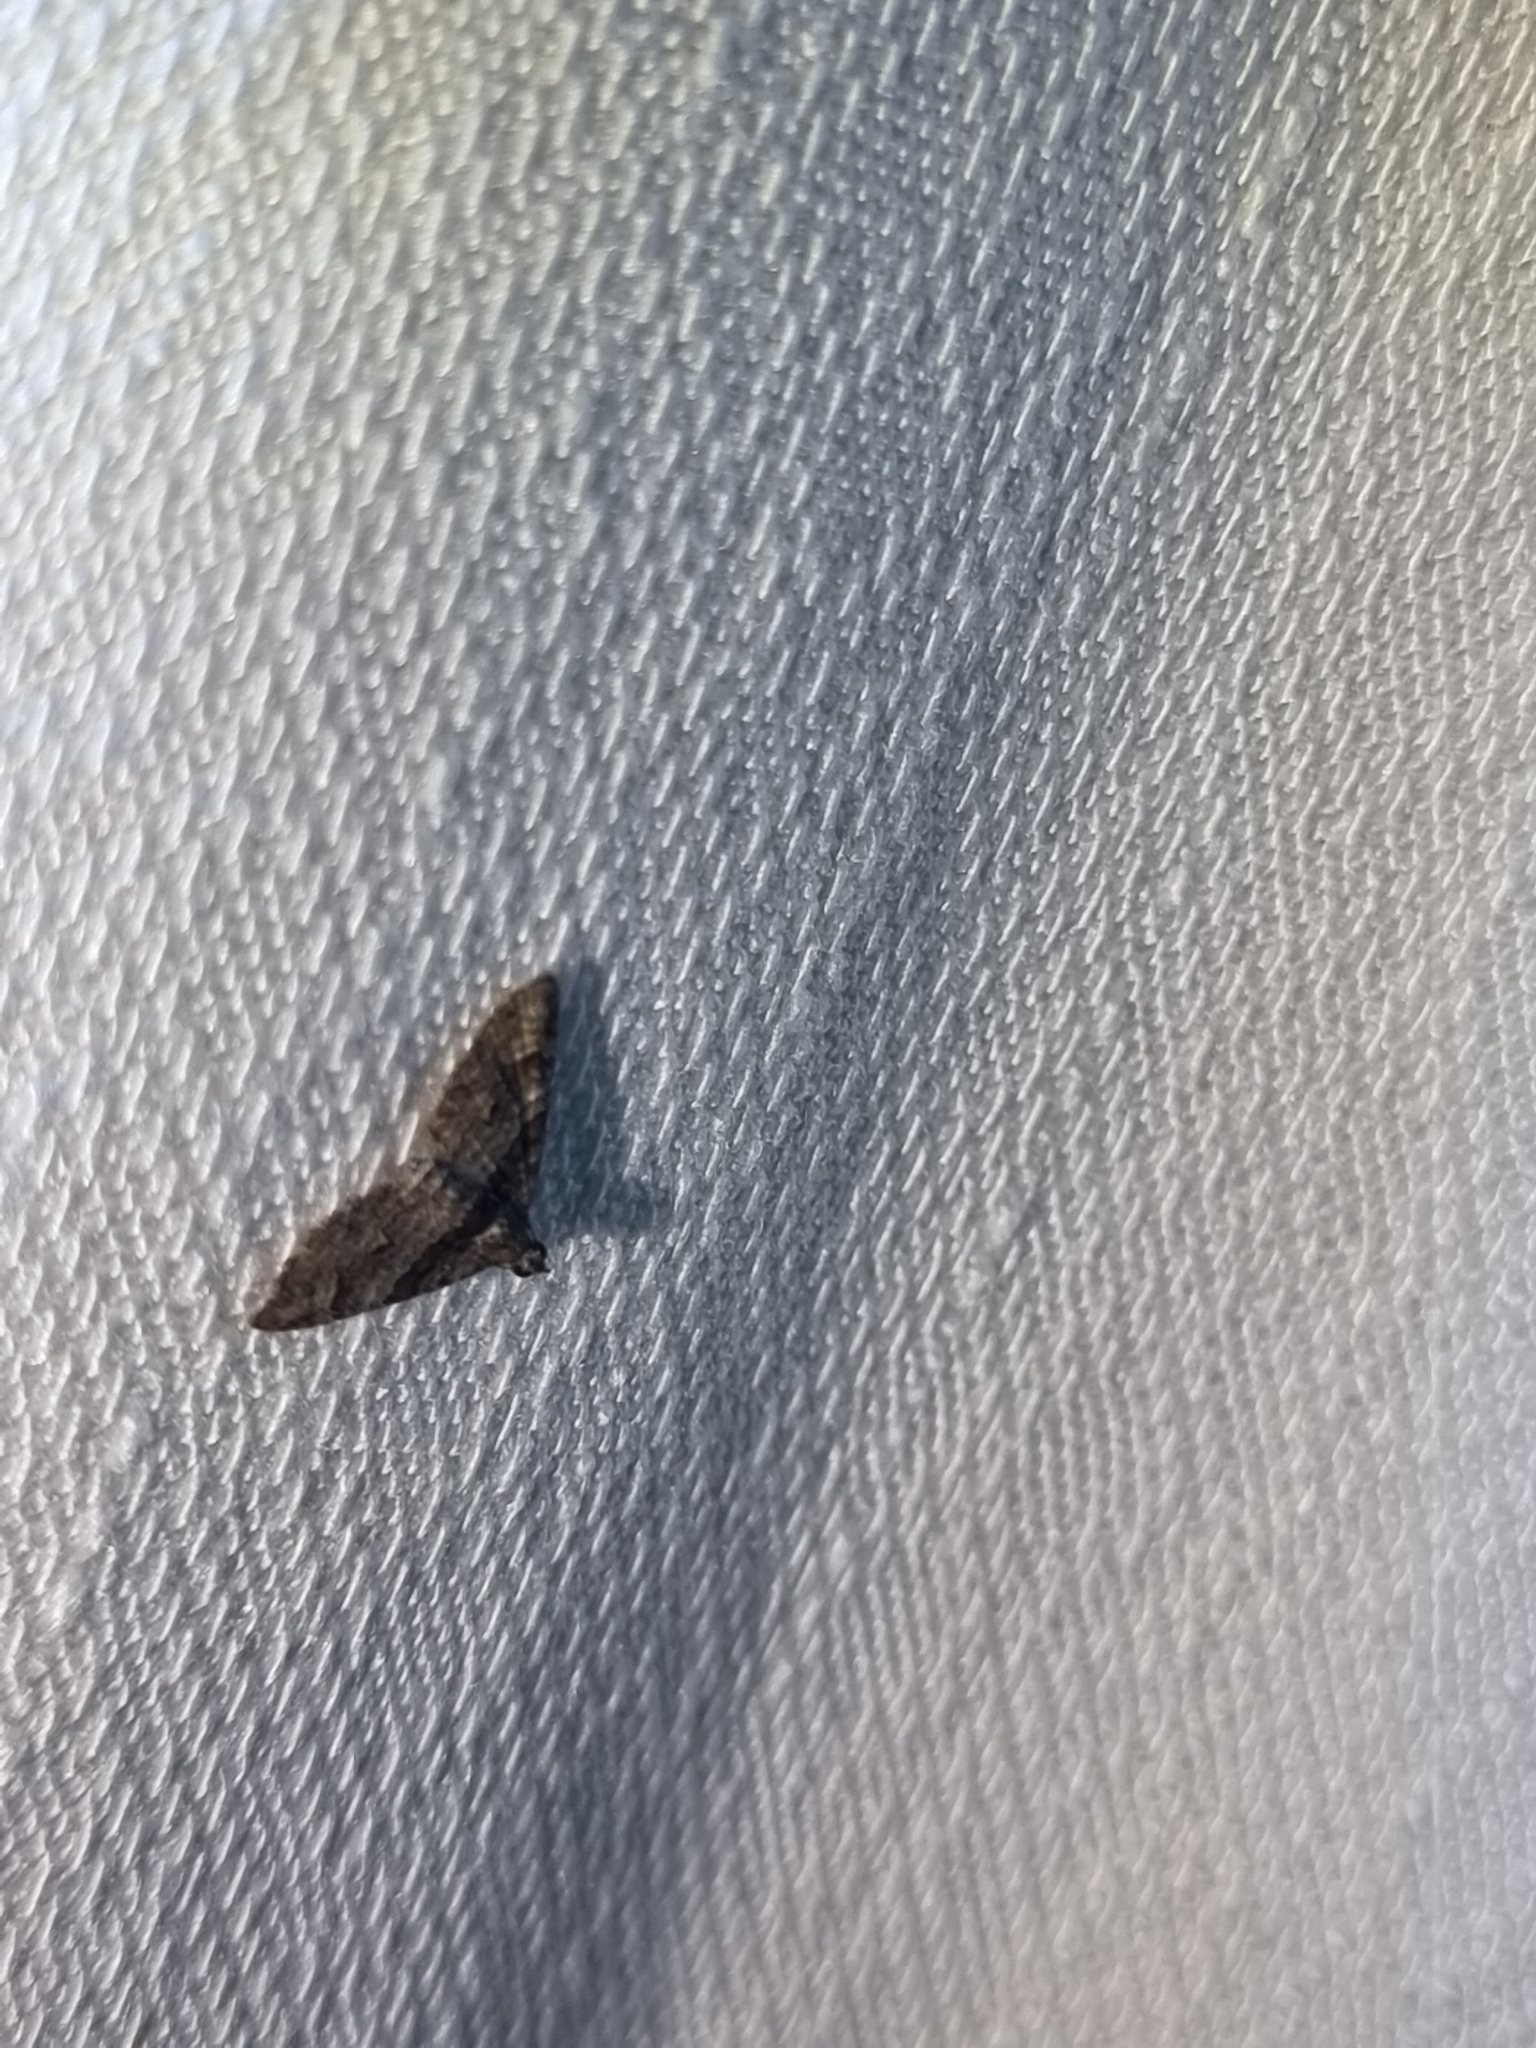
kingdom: Animalia
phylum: Arthropoda
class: Insecta
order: Lepidoptera
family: Geometridae
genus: Phrissogonus
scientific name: Phrissogonus laticostata
